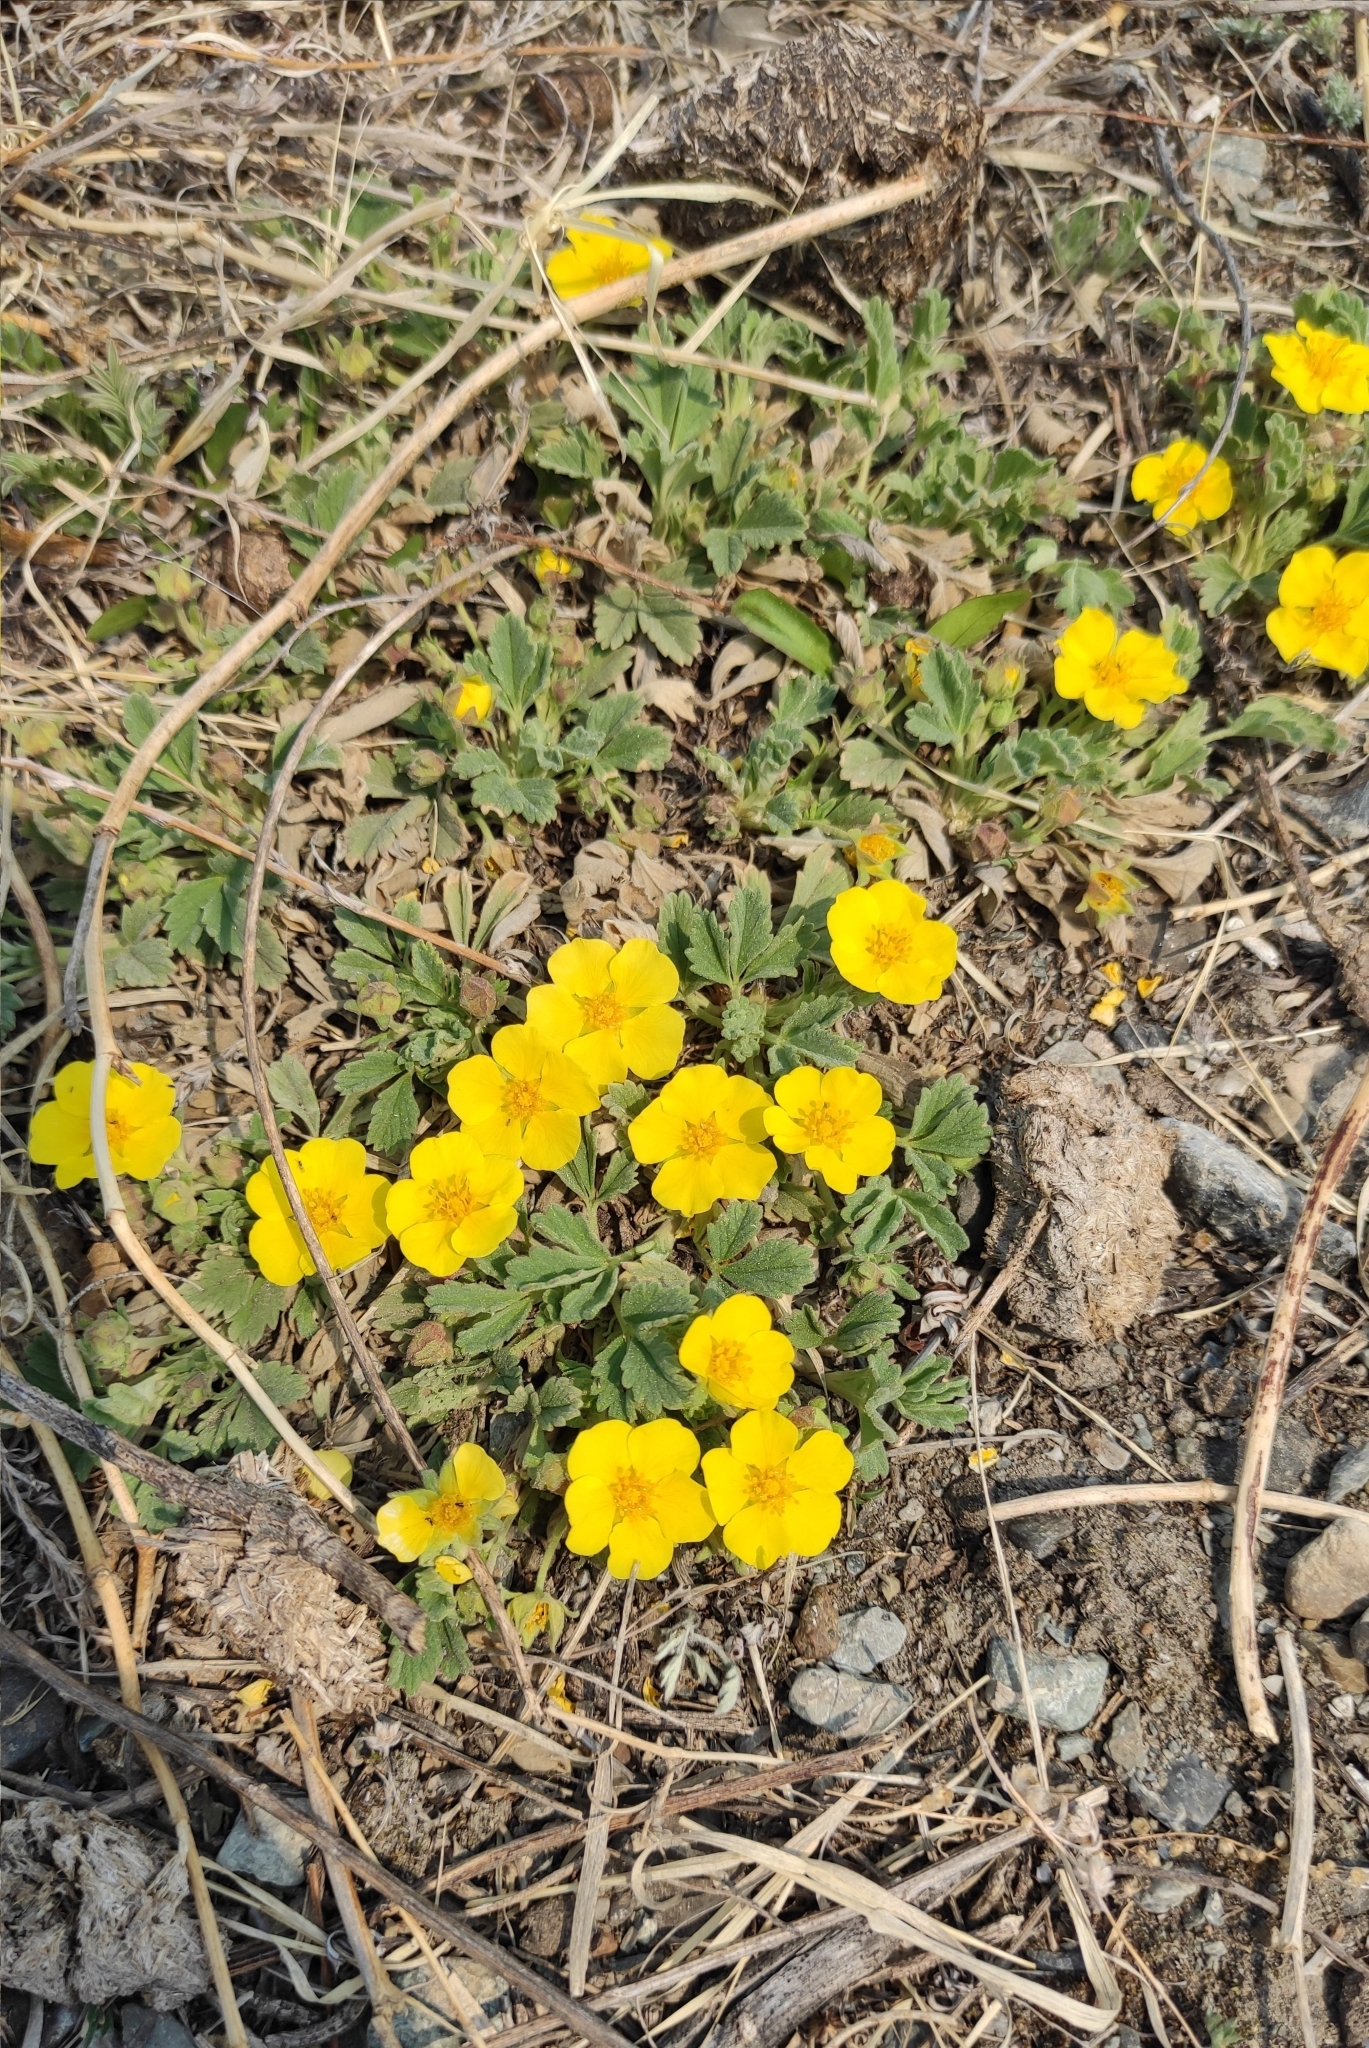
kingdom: Plantae
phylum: Tracheophyta
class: Magnoliopsida
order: Rosales
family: Rosaceae
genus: Potentilla
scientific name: Potentilla acaulis
